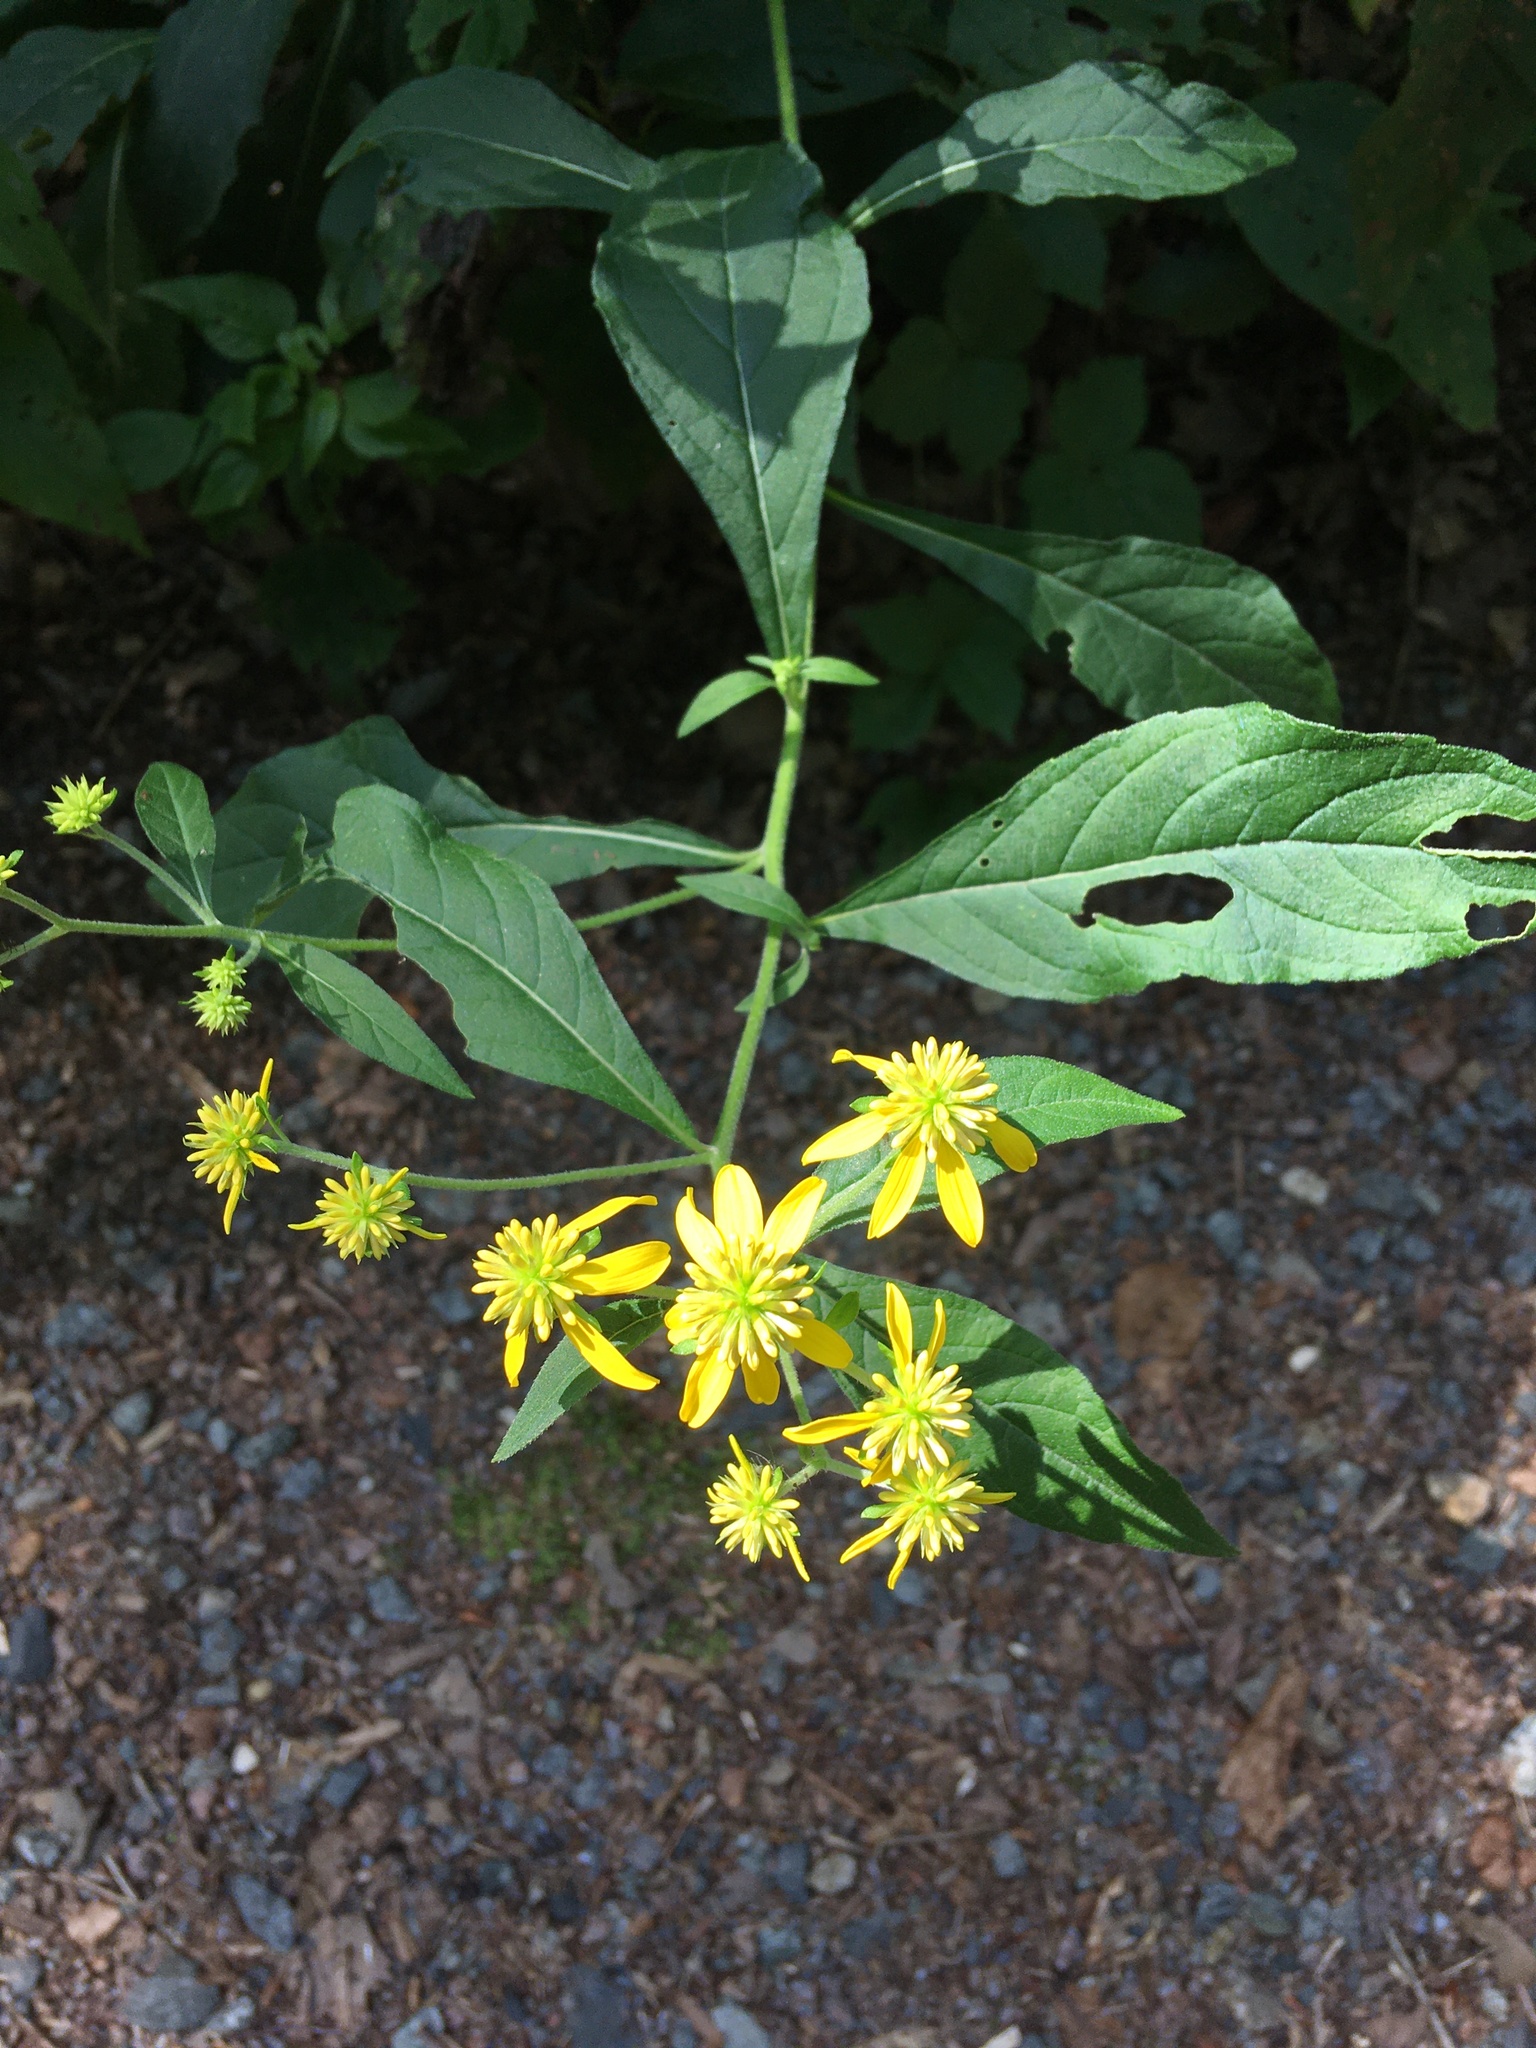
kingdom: Plantae
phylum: Tracheophyta
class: Magnoliopsida
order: Asterales
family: Asteraceae
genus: Verbesina
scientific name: Verbesina alternifolia
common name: Wingstem
